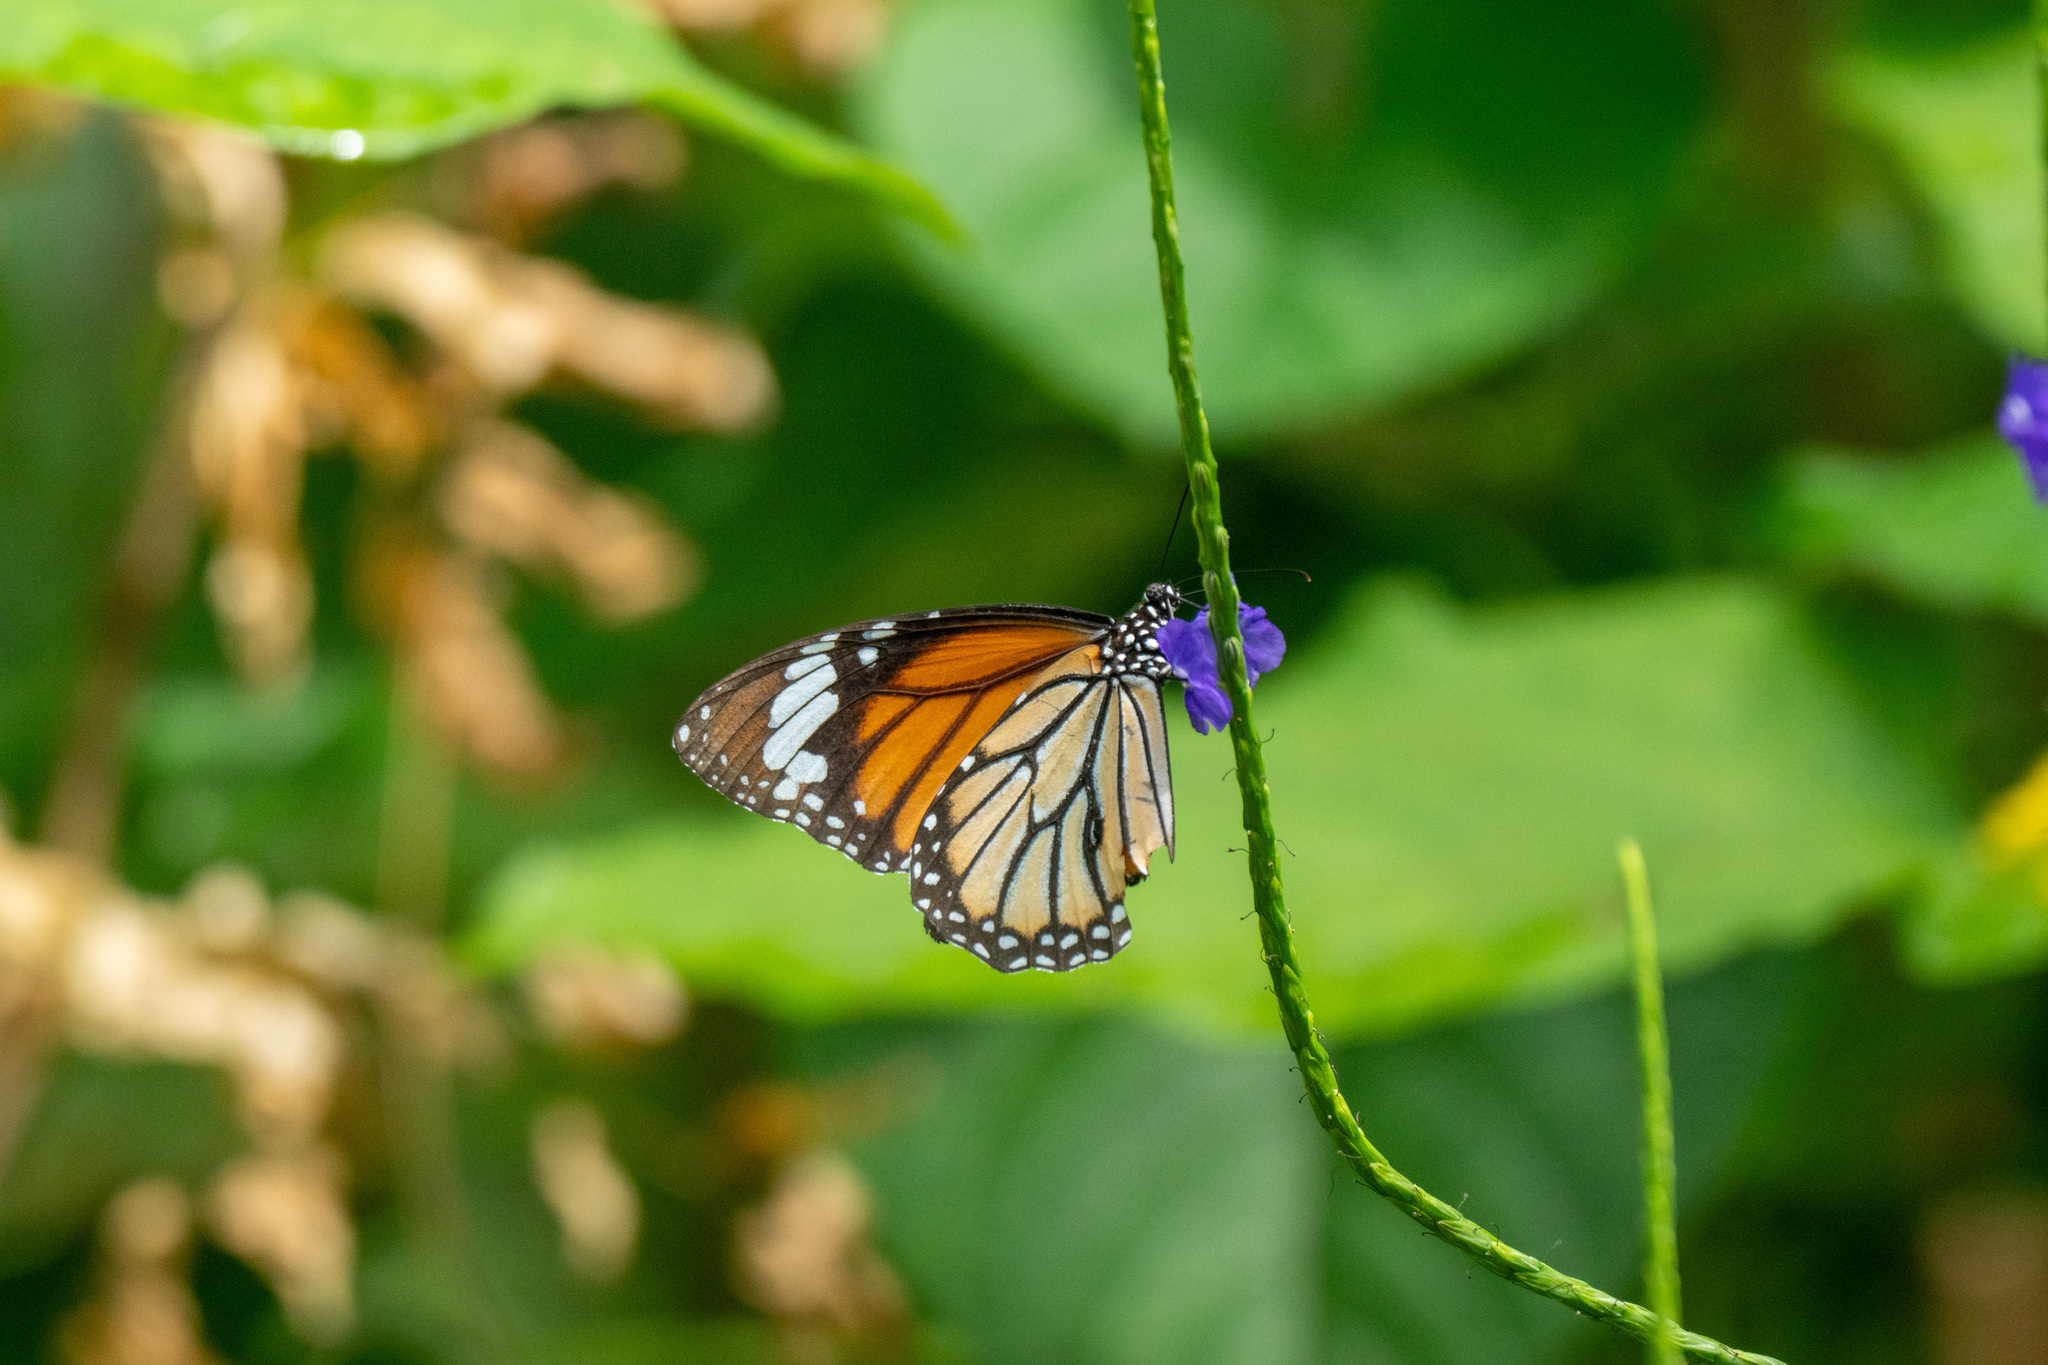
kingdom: Animalia
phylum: Arthropoda
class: Insecta
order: Lepidoptera
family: Nymphalidae
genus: Danaus
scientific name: Danaus genutia
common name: Common tiger butterfly
